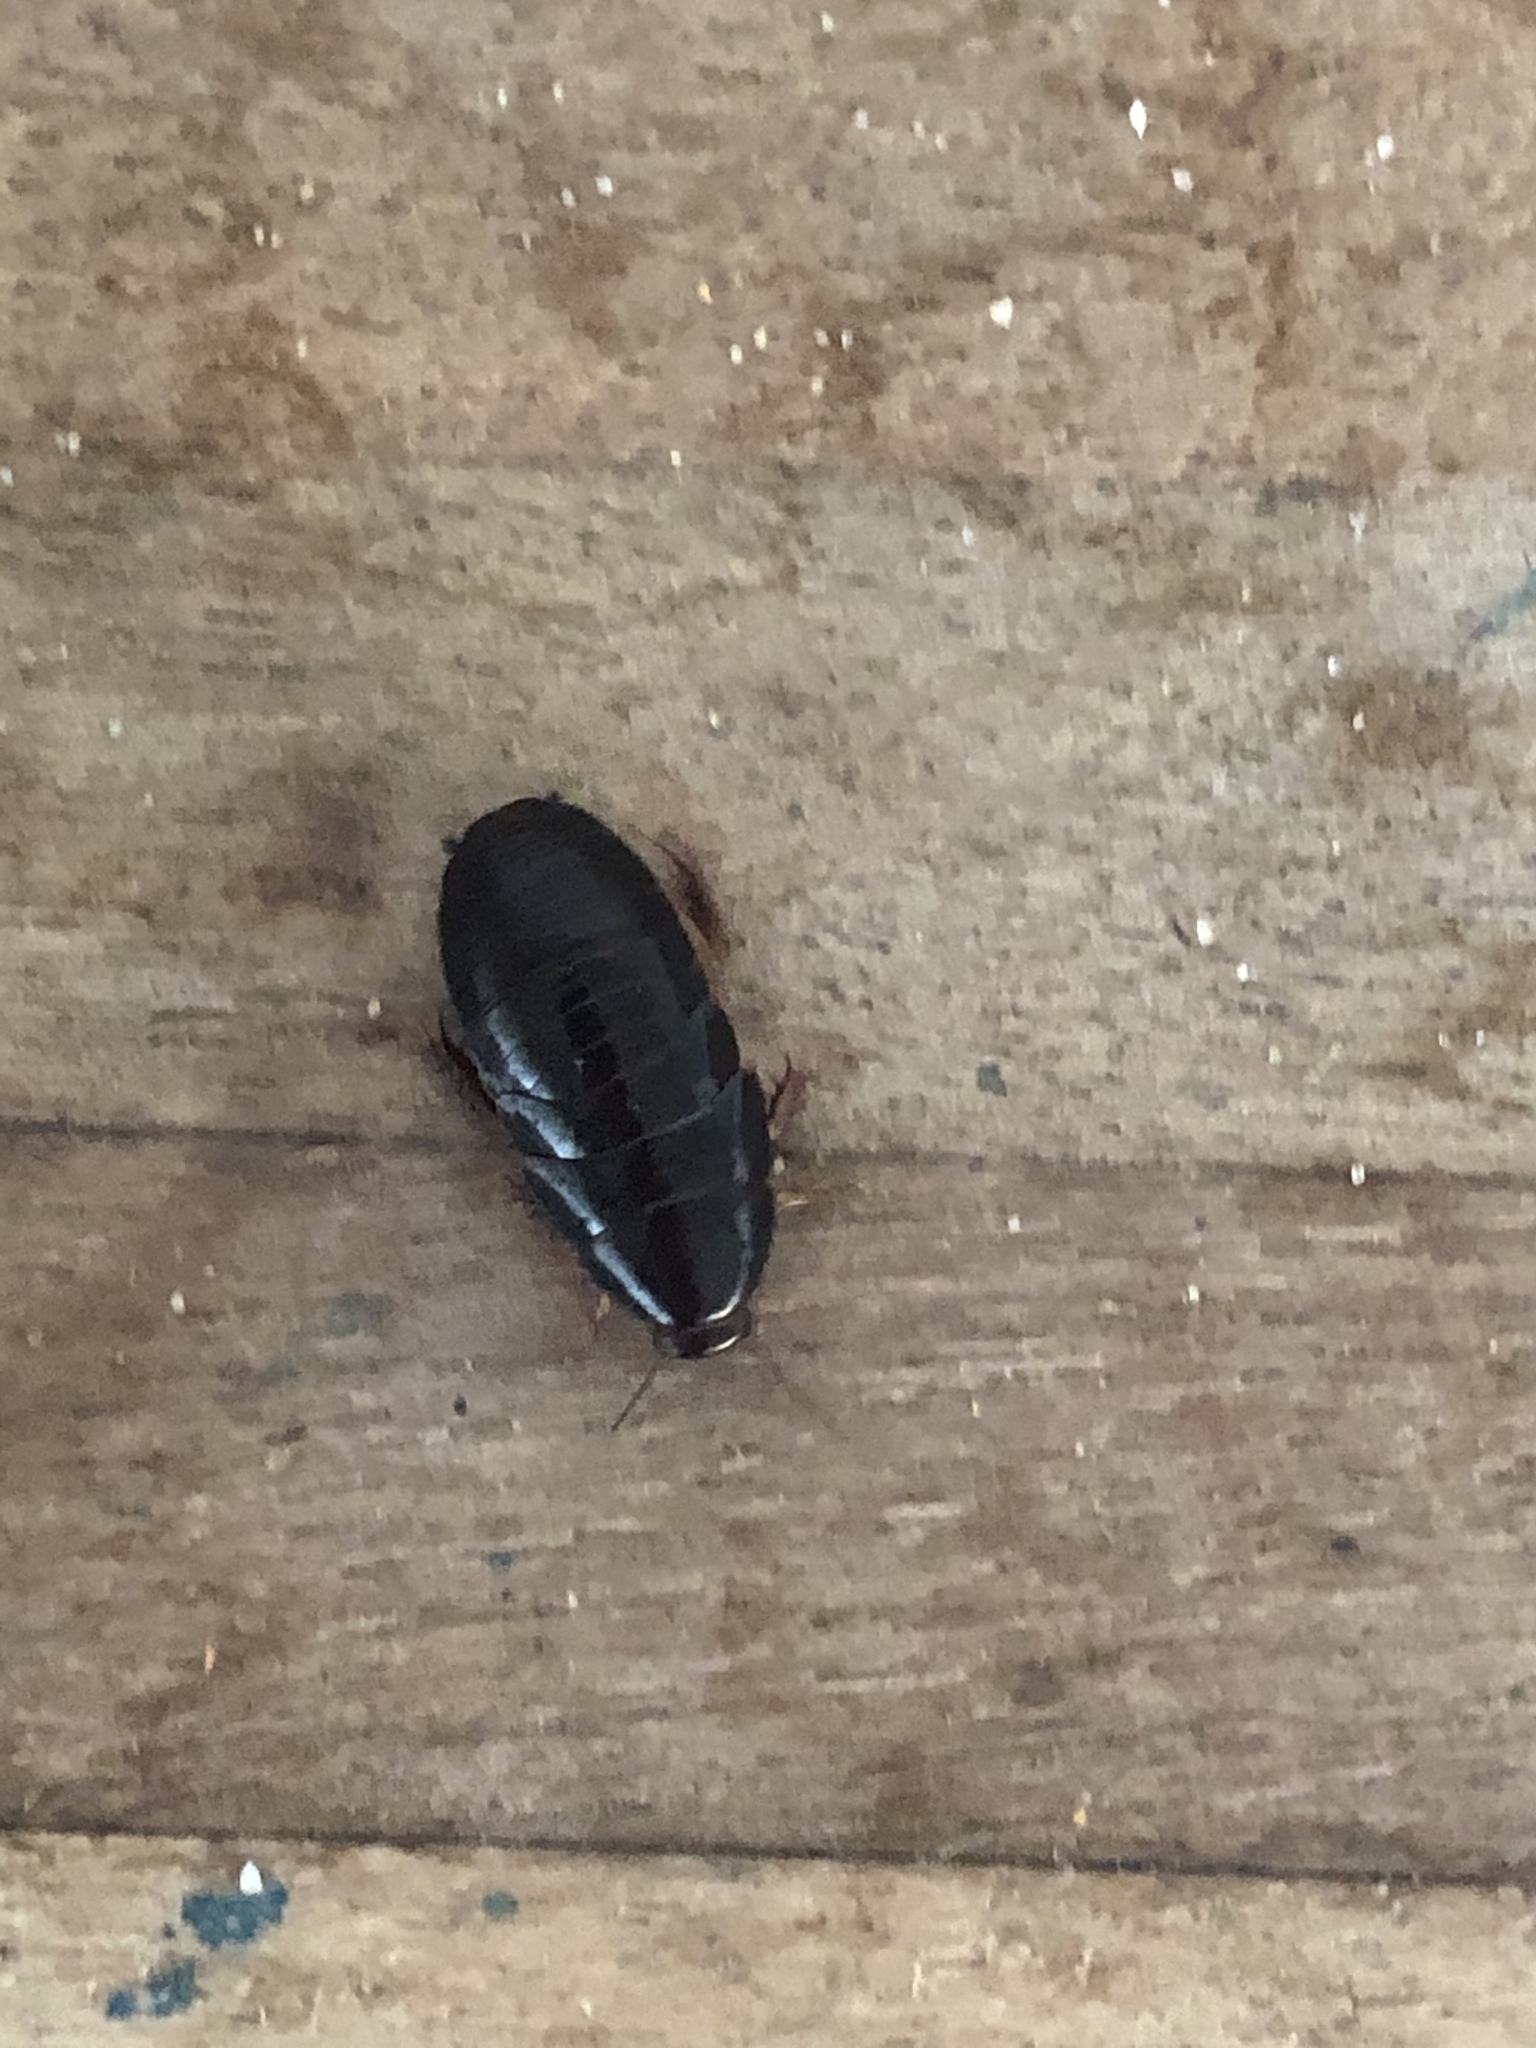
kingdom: Animalia
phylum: Arthropoda
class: Insecta
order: Blattodea
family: Blaberidae
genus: Pycnoscelus
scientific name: Pycnoscelus surinamensis
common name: Surinam cockroach
